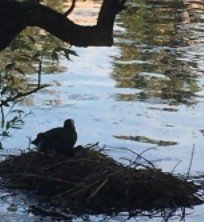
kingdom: Animalia
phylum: Chordata
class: Aves
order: Gruiformes
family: Rallidae
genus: Fulica
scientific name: Fulica atra
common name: Eurasian coot
